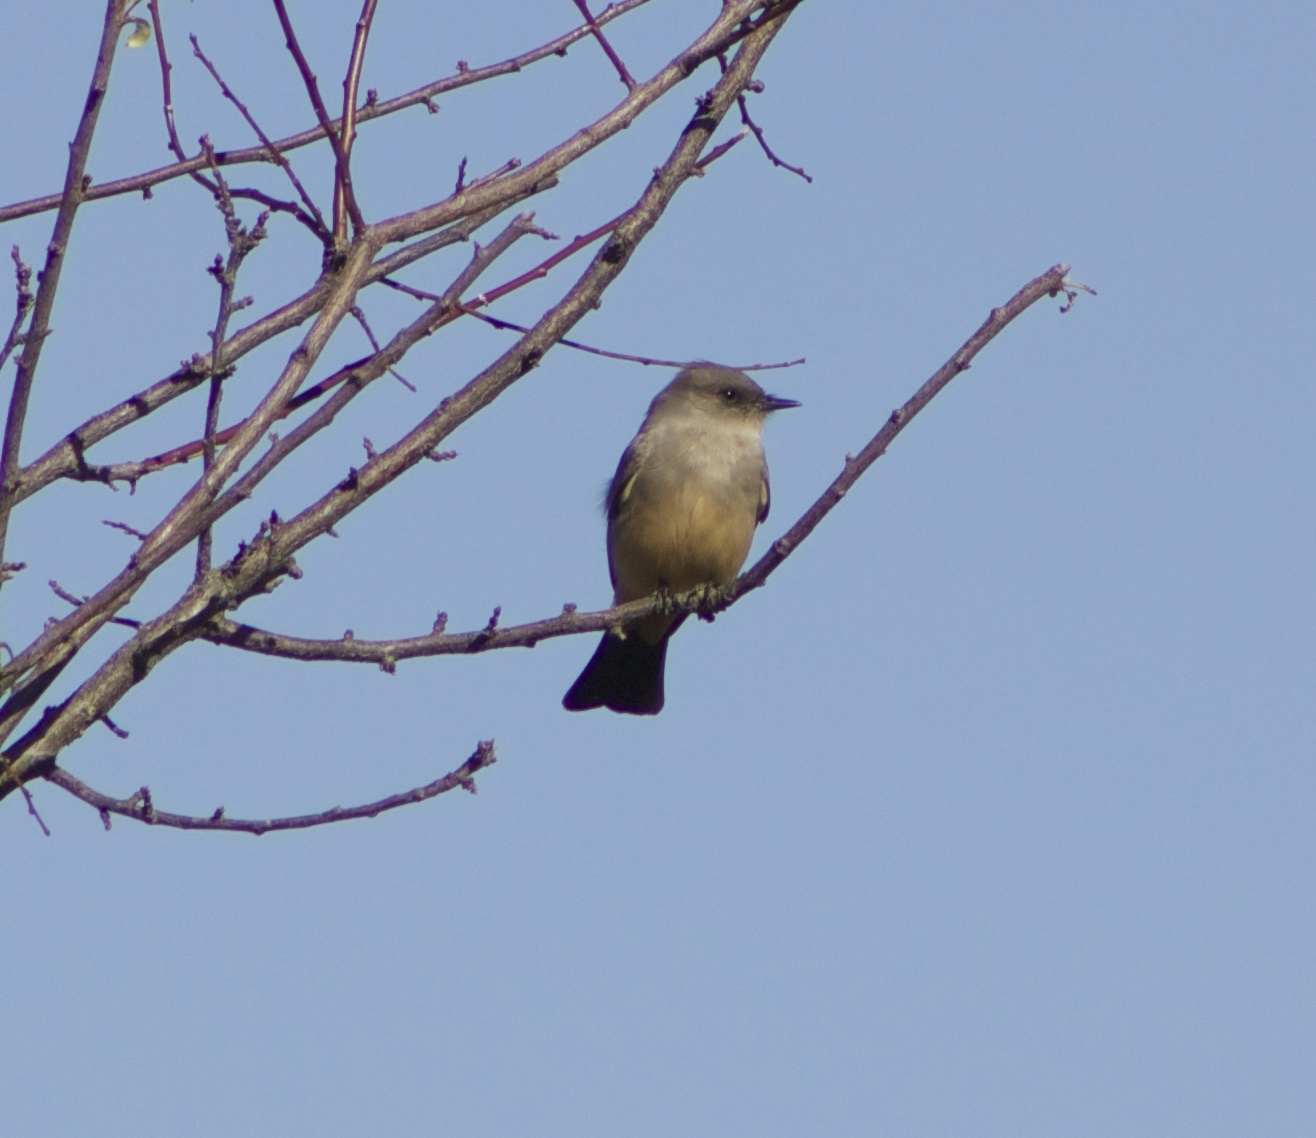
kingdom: Animalia
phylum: Chordata
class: Aves
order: Passeriformes
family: Tyrannidae
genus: Sayornis
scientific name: Sayornis saya
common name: Say's phoebe
